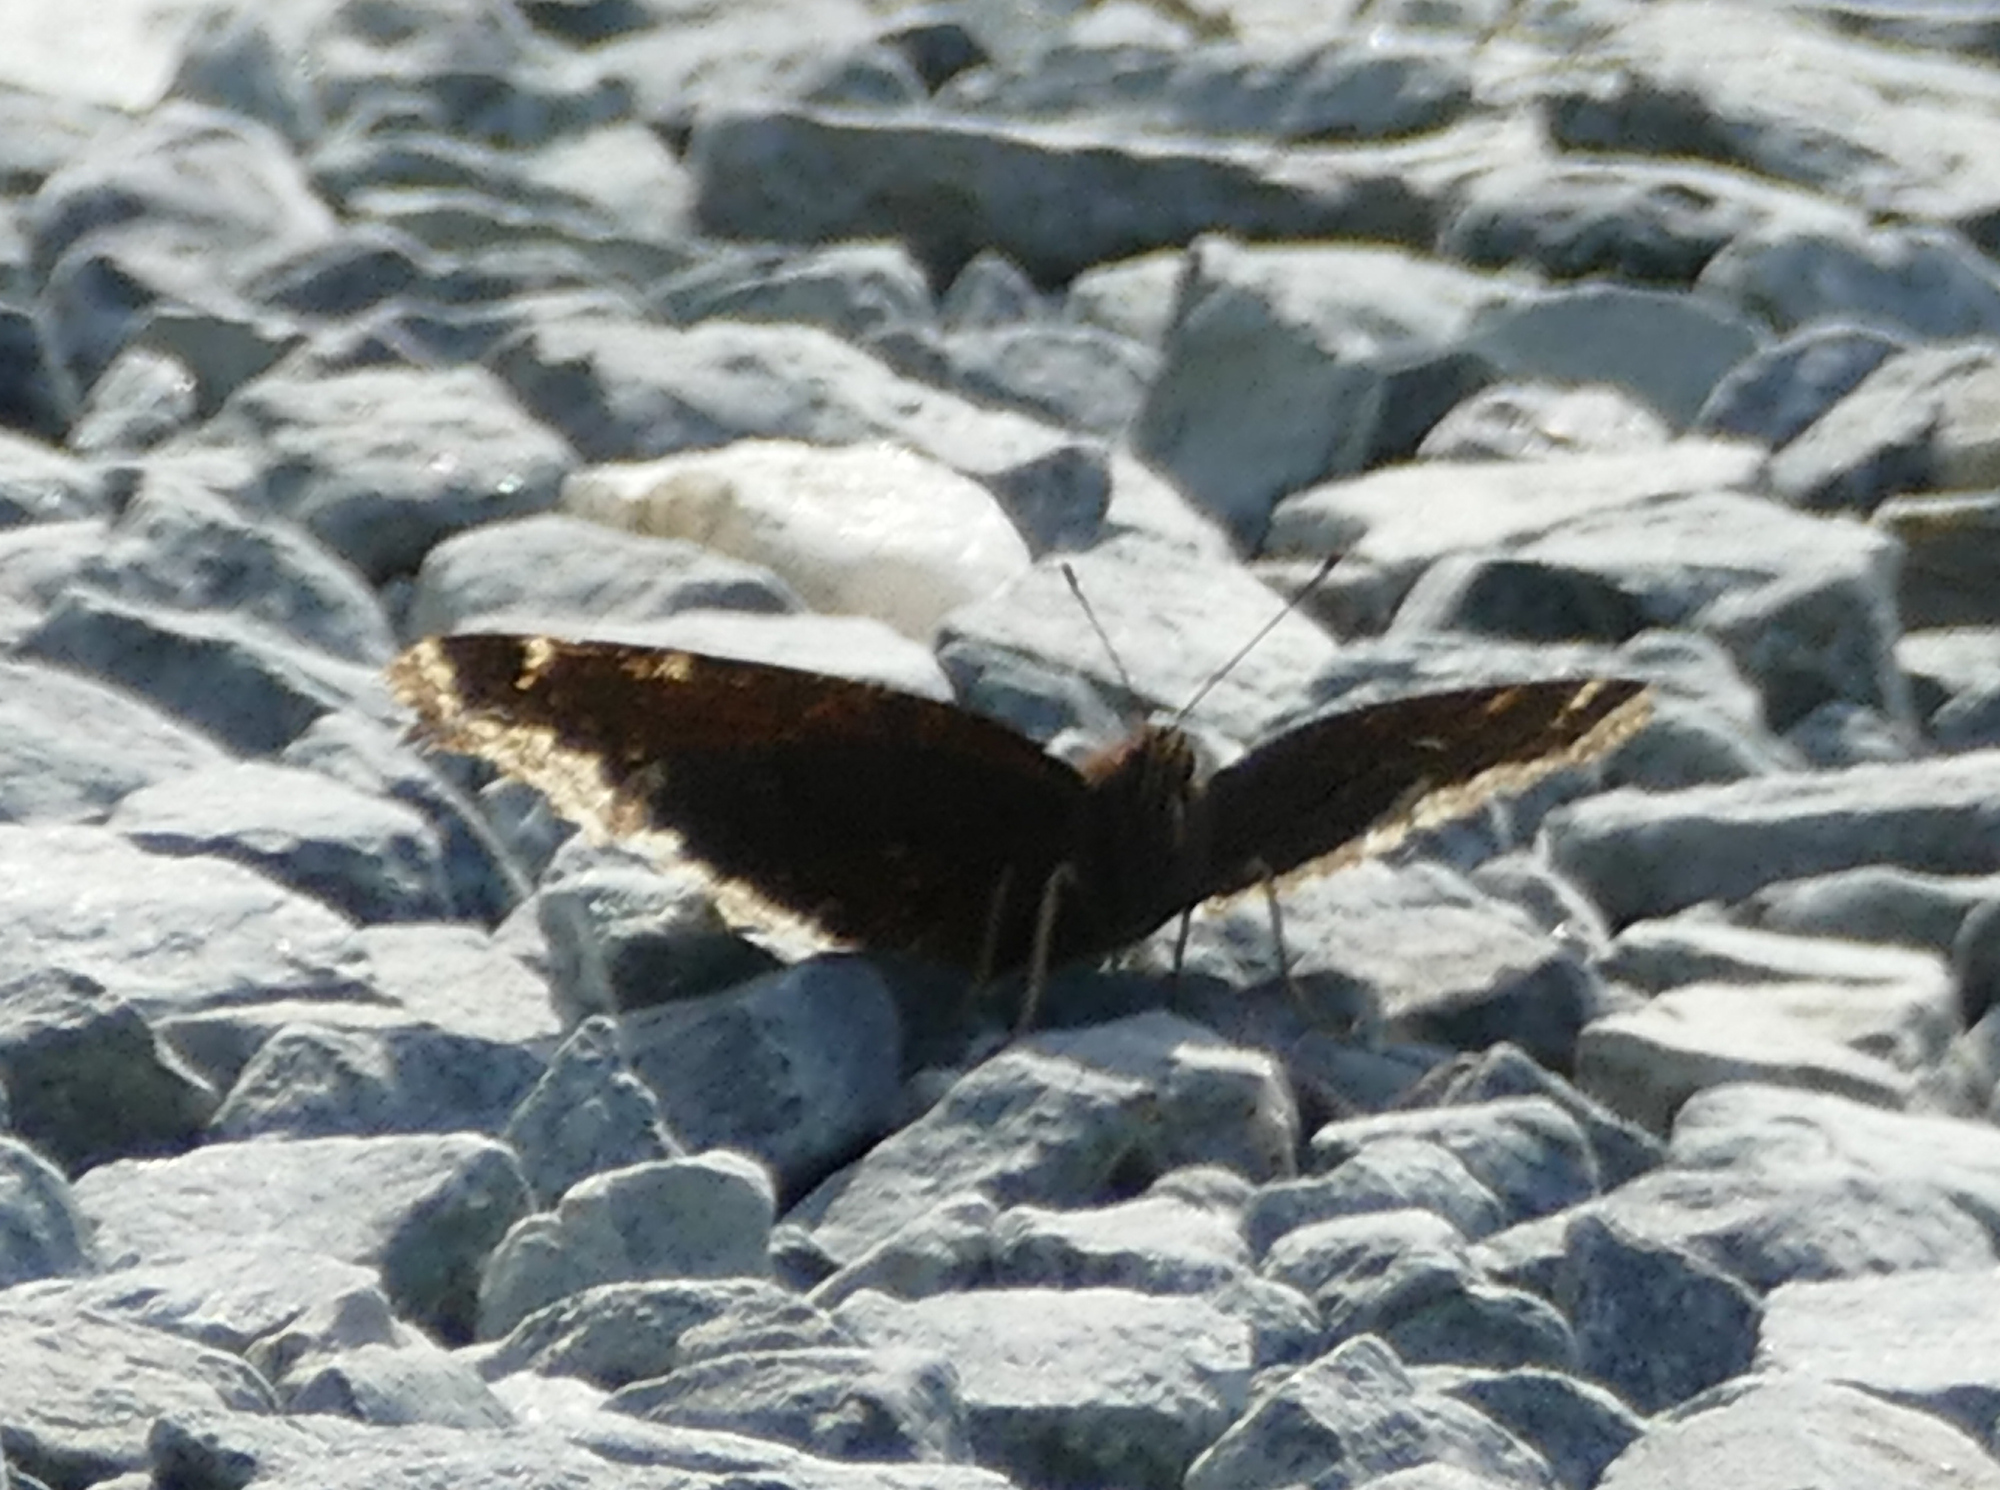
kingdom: Animalia
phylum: Arthropoda
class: Insecta
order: Lepidoptera
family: Nymphalidae
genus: Nymphalis
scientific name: Nymphalis antiopa
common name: Camberwell beauty
